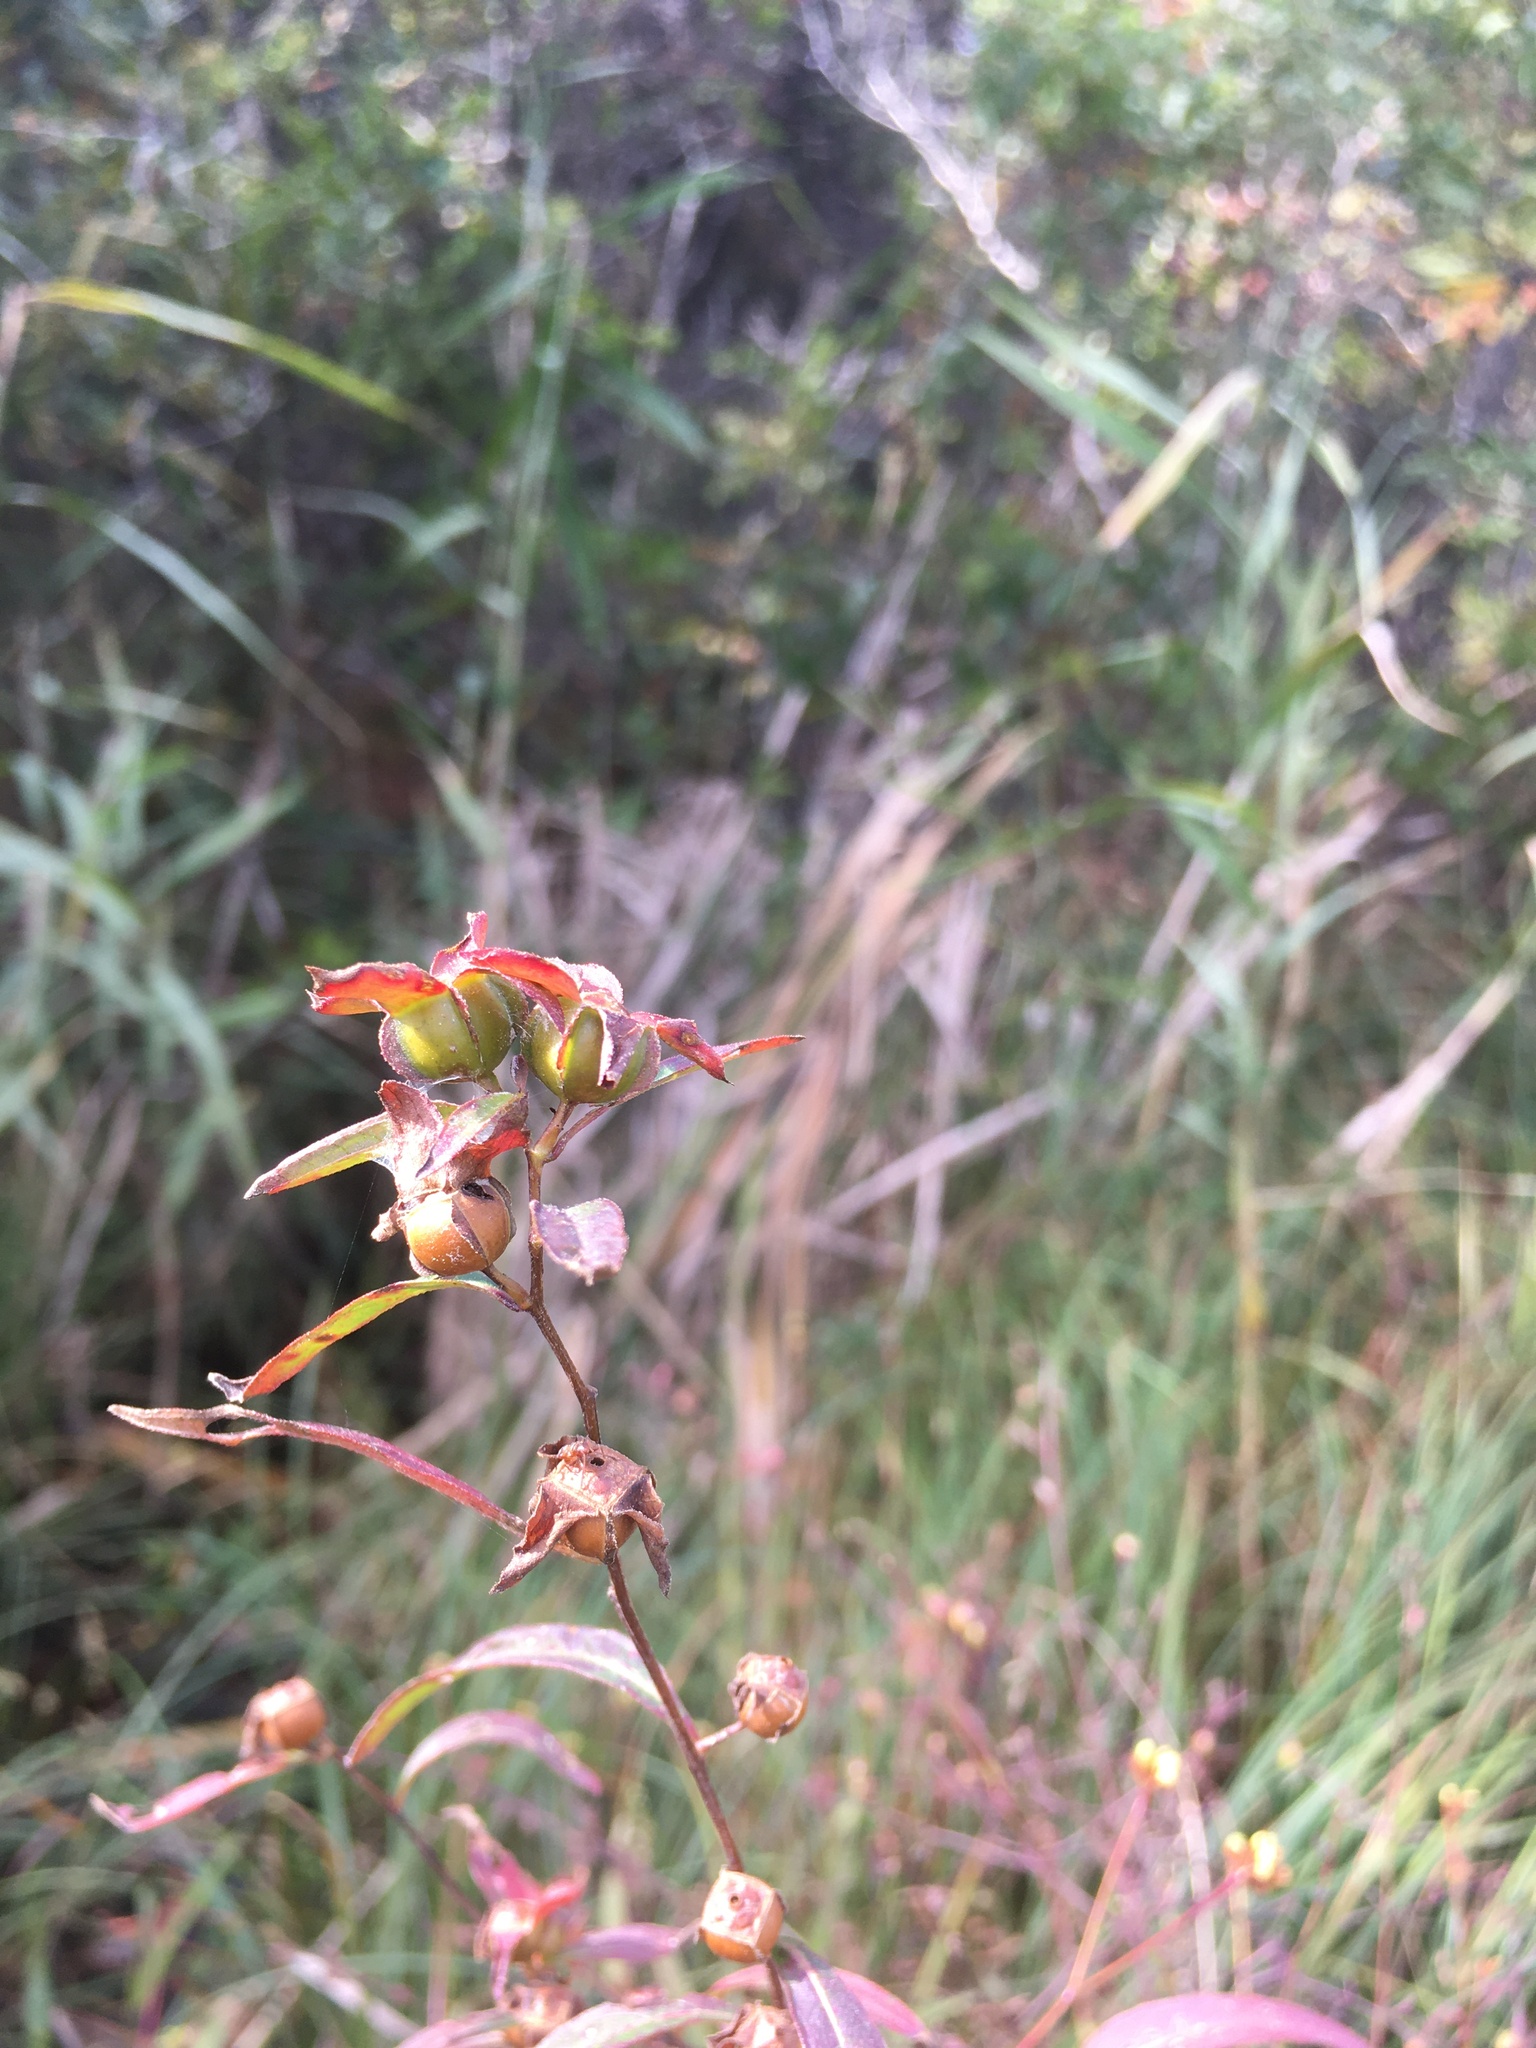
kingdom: Plantae
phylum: Tracheophyta
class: Magnoliopsida
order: Myrtales
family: Onagraceae
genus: Ludwigia
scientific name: Ludwigia alternifolia
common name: Rattlebox
